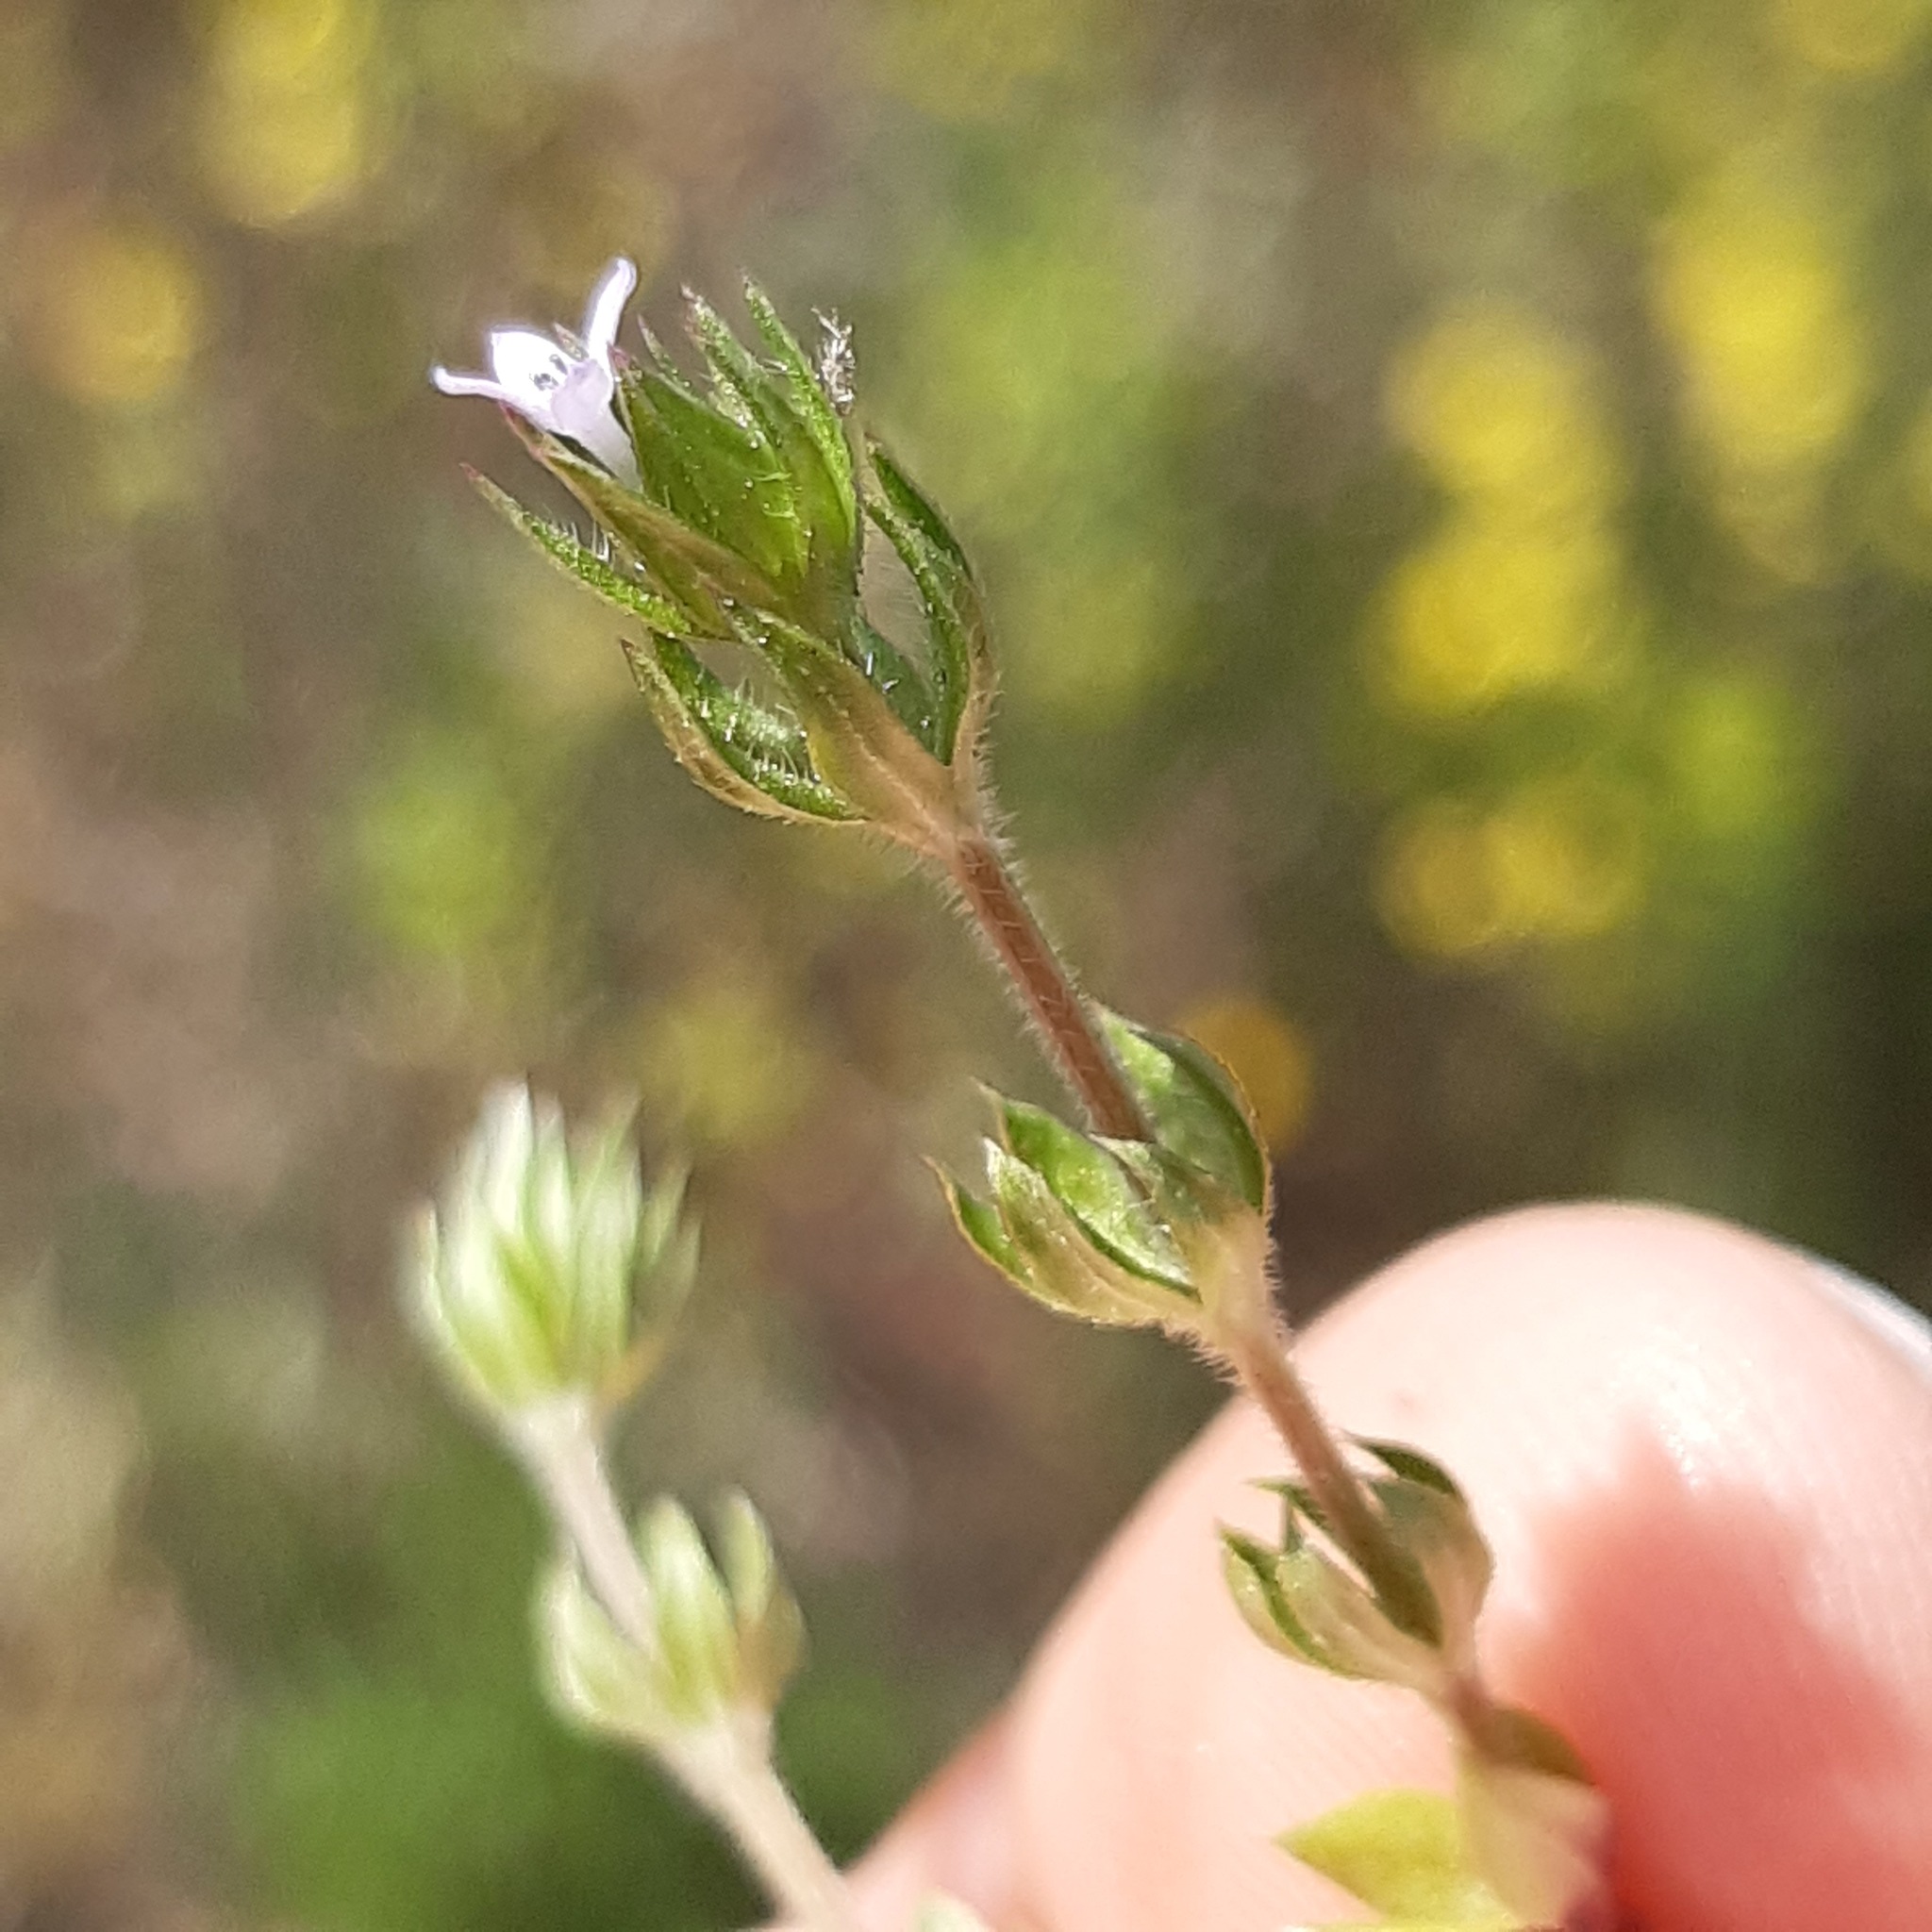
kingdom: Plantae
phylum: Tracheophyta
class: Magnoliopsida
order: Gentianales
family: Rubiaceae
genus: Sherardia
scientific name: Sherardia arvensis
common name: Field madder
